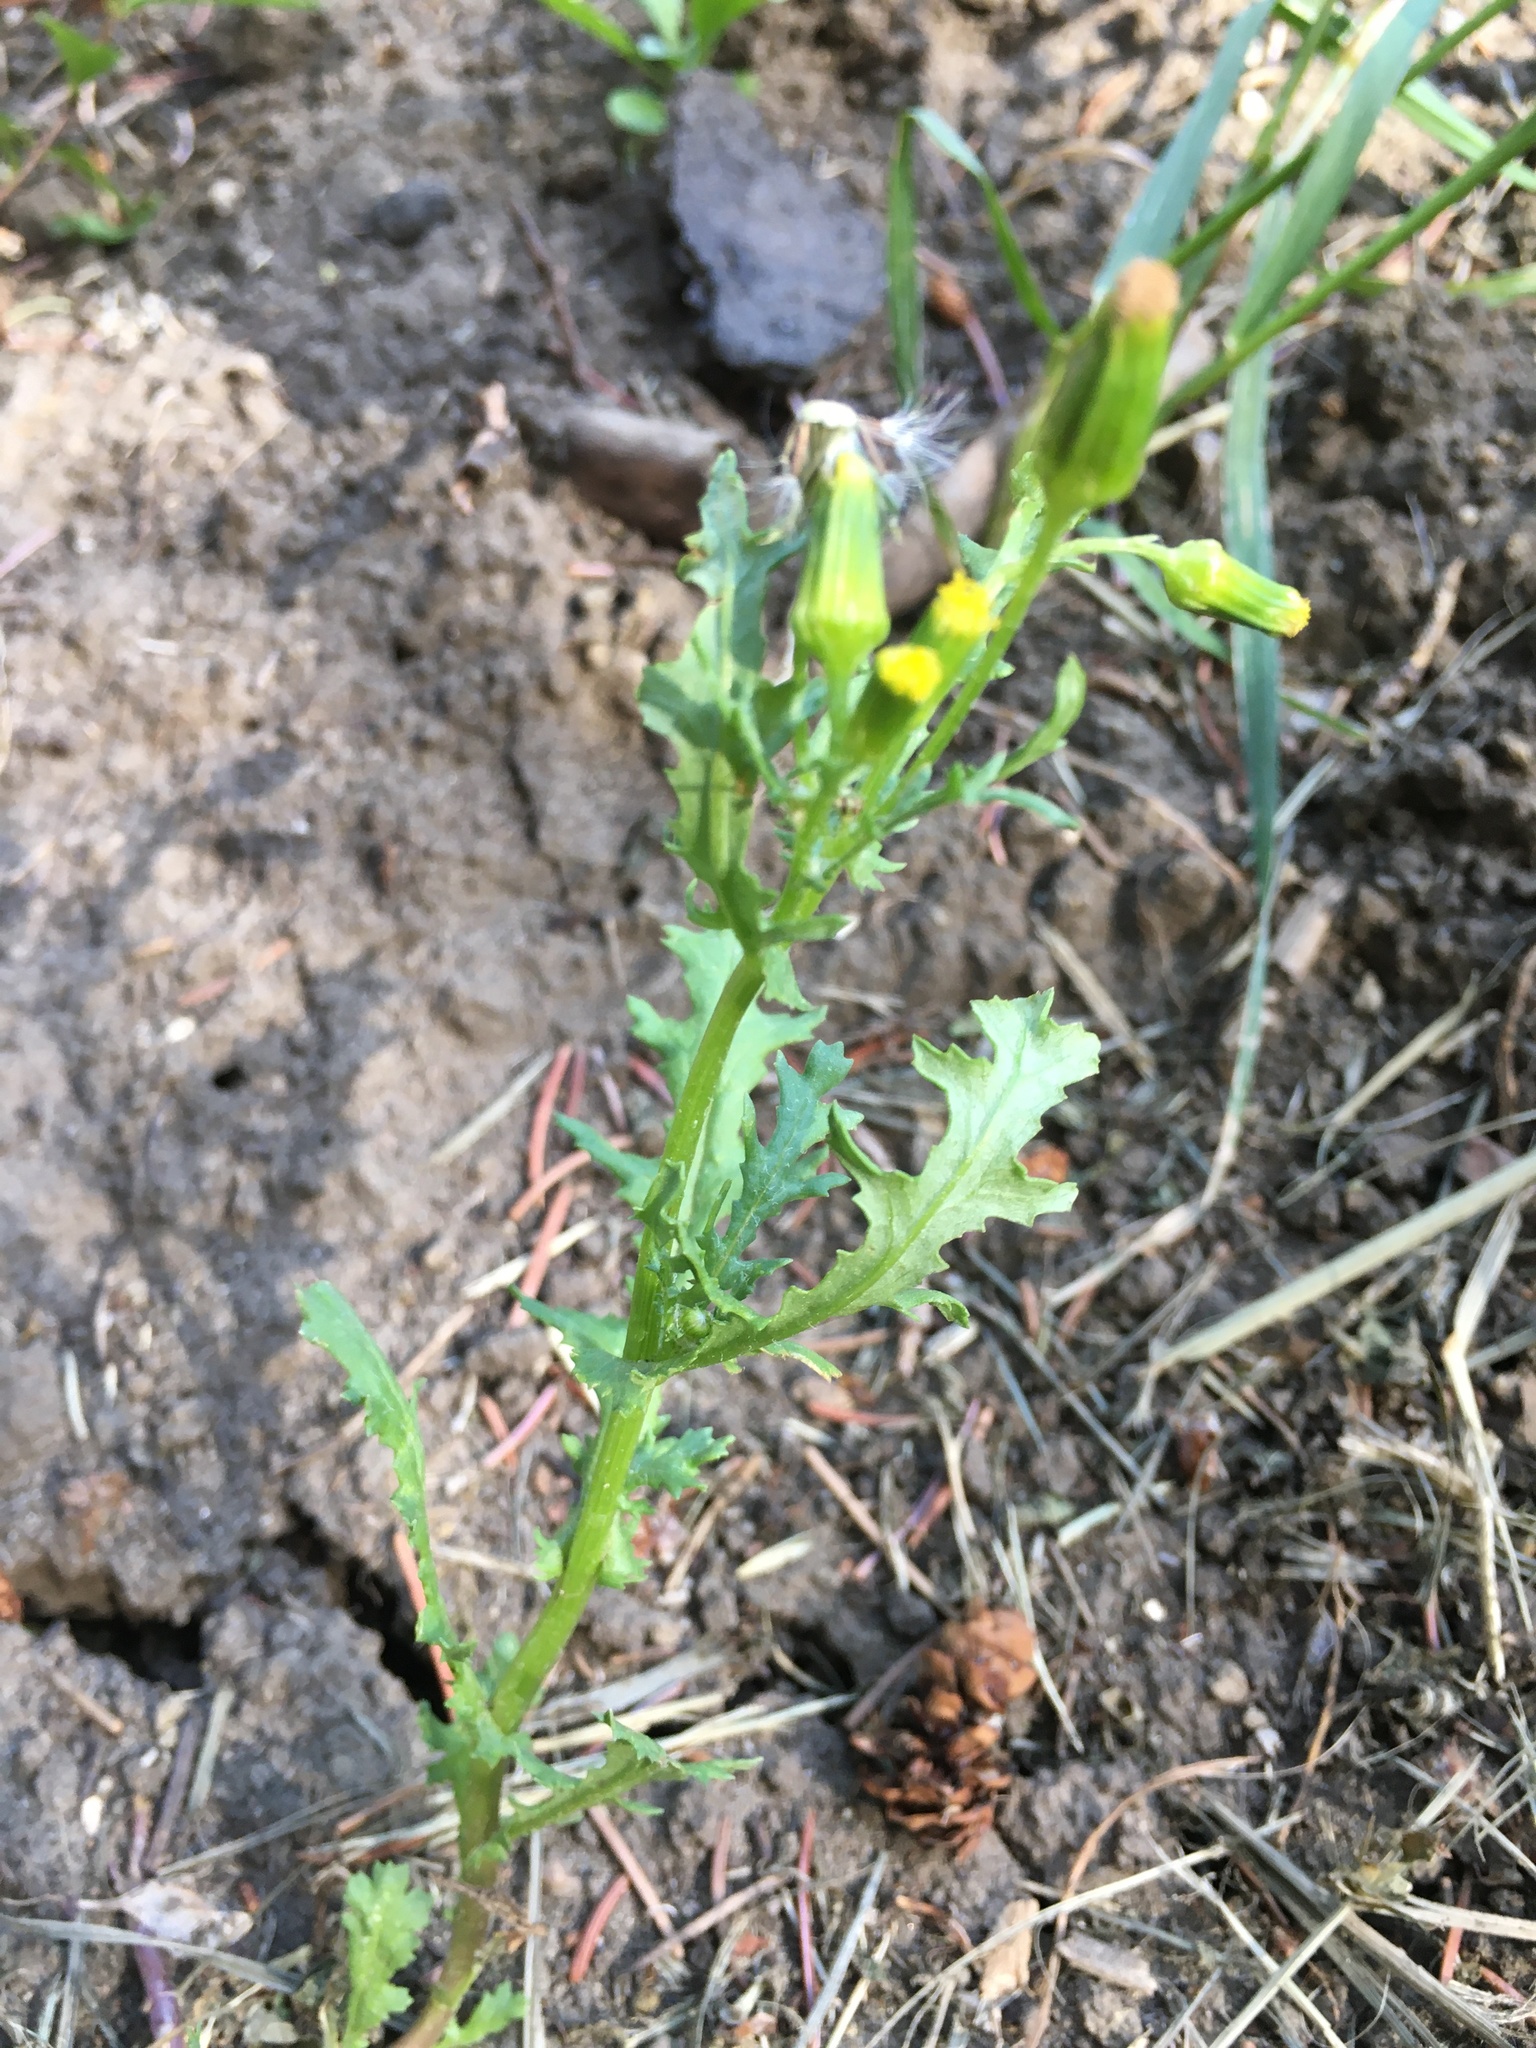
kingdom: Plantae
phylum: Tracheophyta
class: Magnoliopsida
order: Asterales
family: Asteraceae
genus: Senecio
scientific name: Senecio vulgaris
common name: Old-man-in-the-spring
